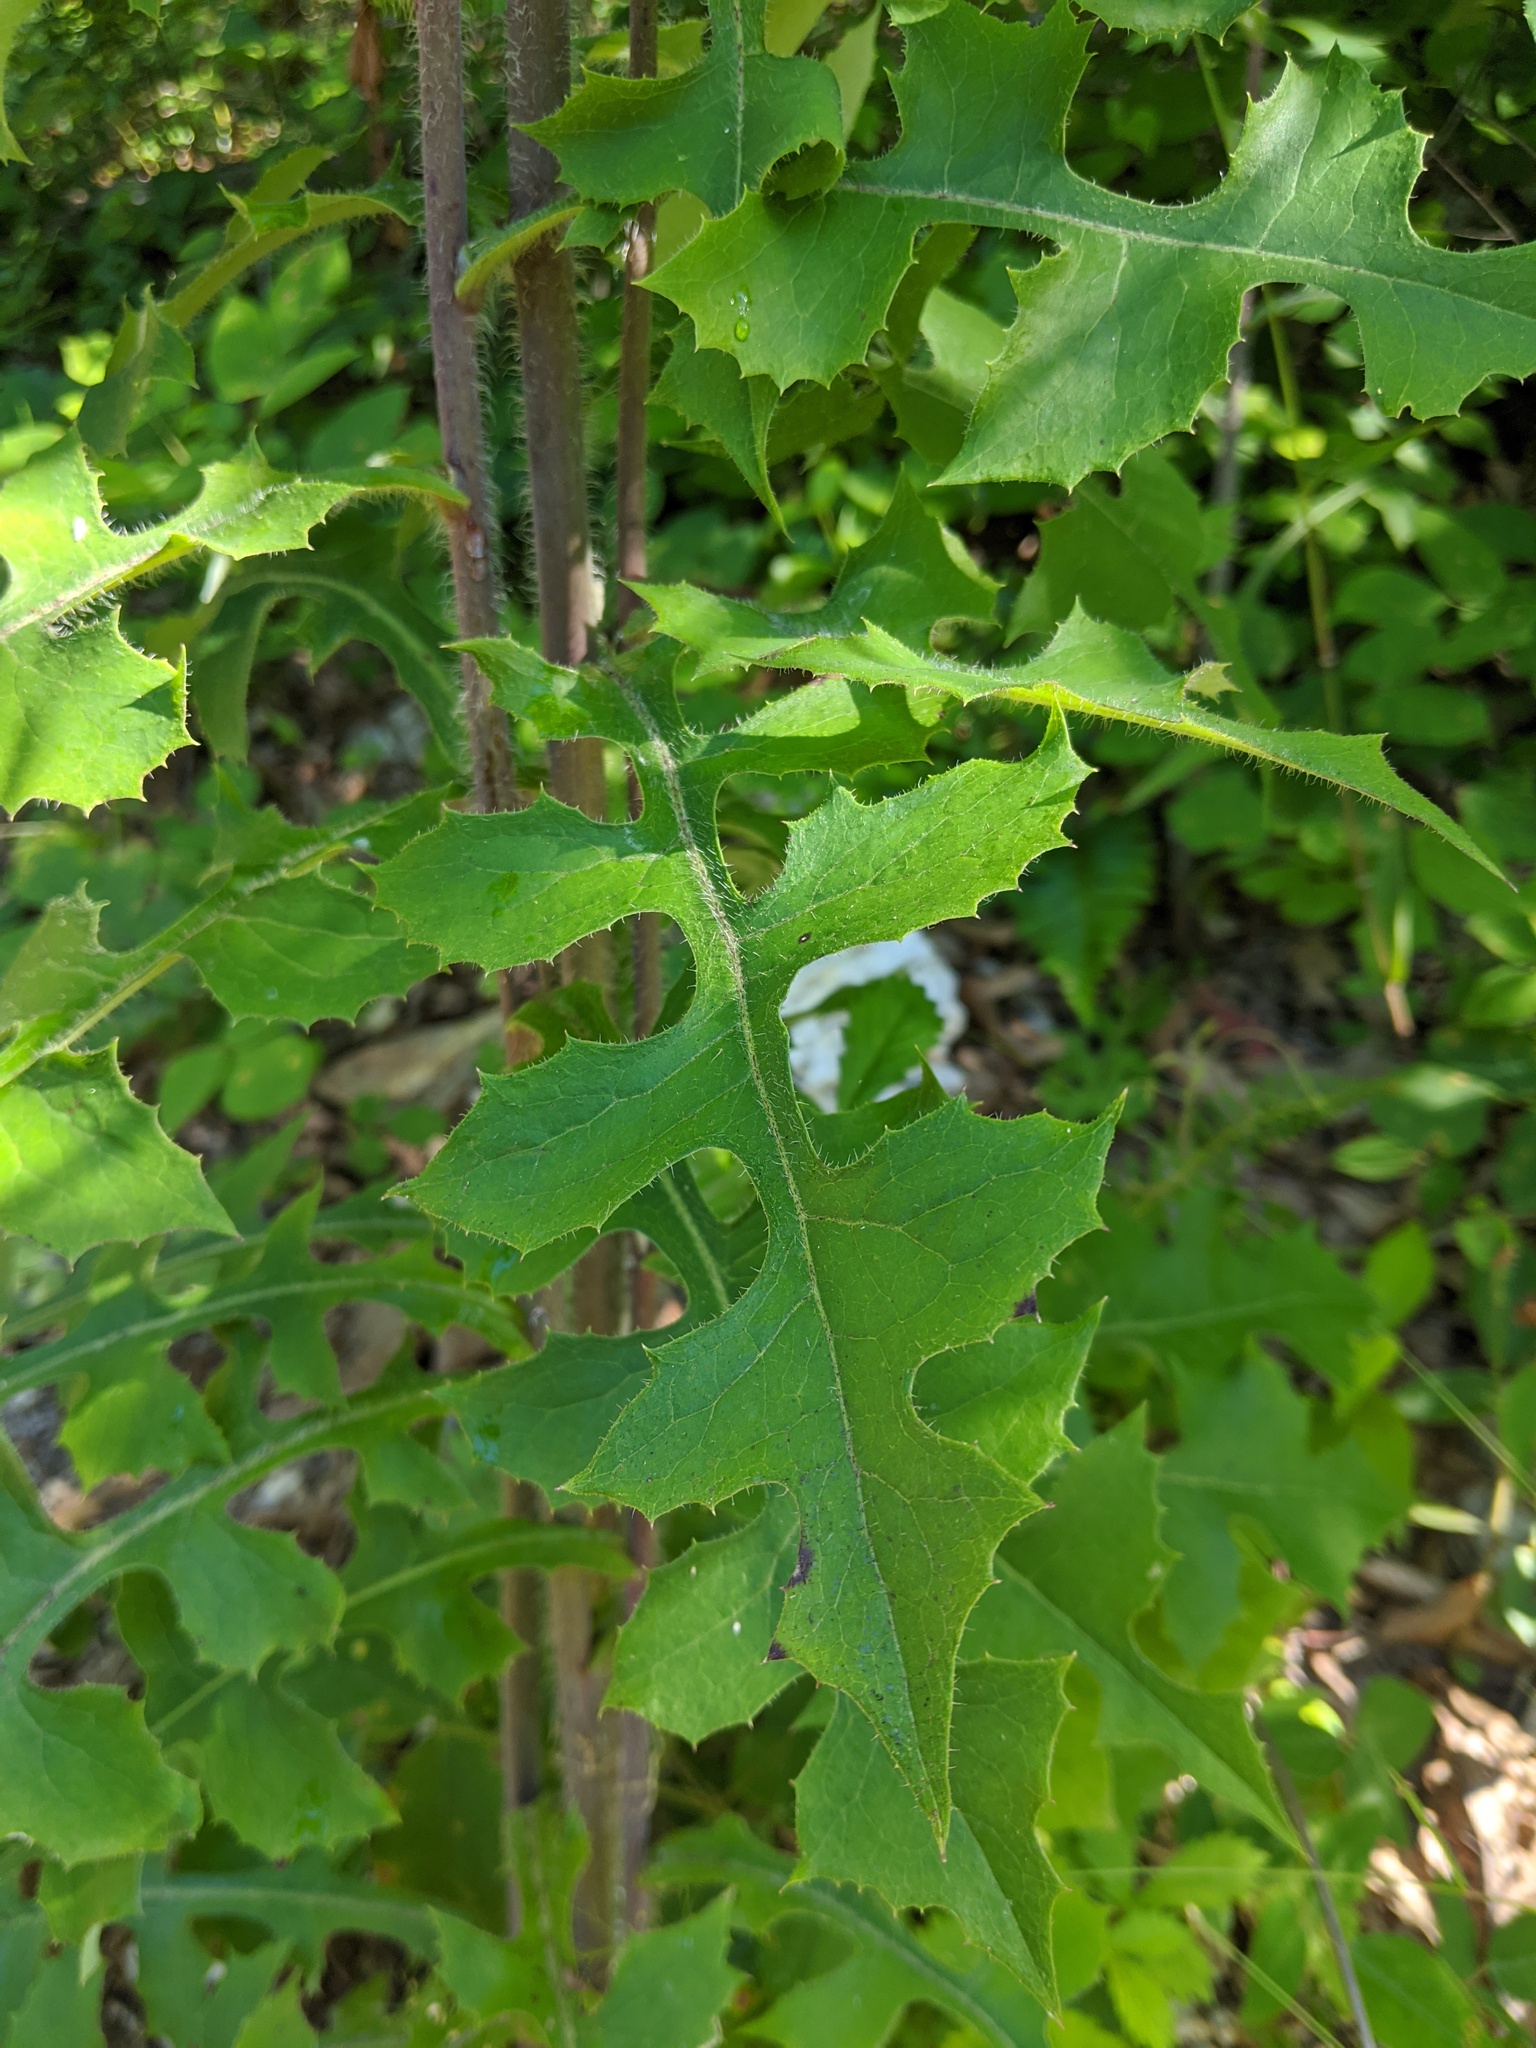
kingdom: Plantae
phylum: Tracheophyta
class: Magnoliopsida
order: Asterales
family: Asteraceae
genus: Lactuca
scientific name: Lactuca hirsuta
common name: Hairy lettuce
